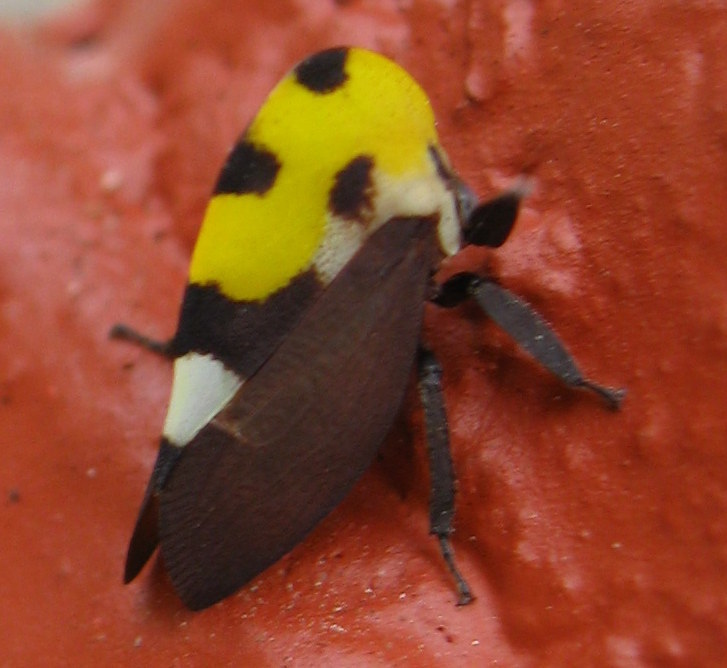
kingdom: Animalia
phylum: Arthropoda
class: Insecta
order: Hemiptera
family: Membracidae
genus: Membracis
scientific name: Membracis mexicana
